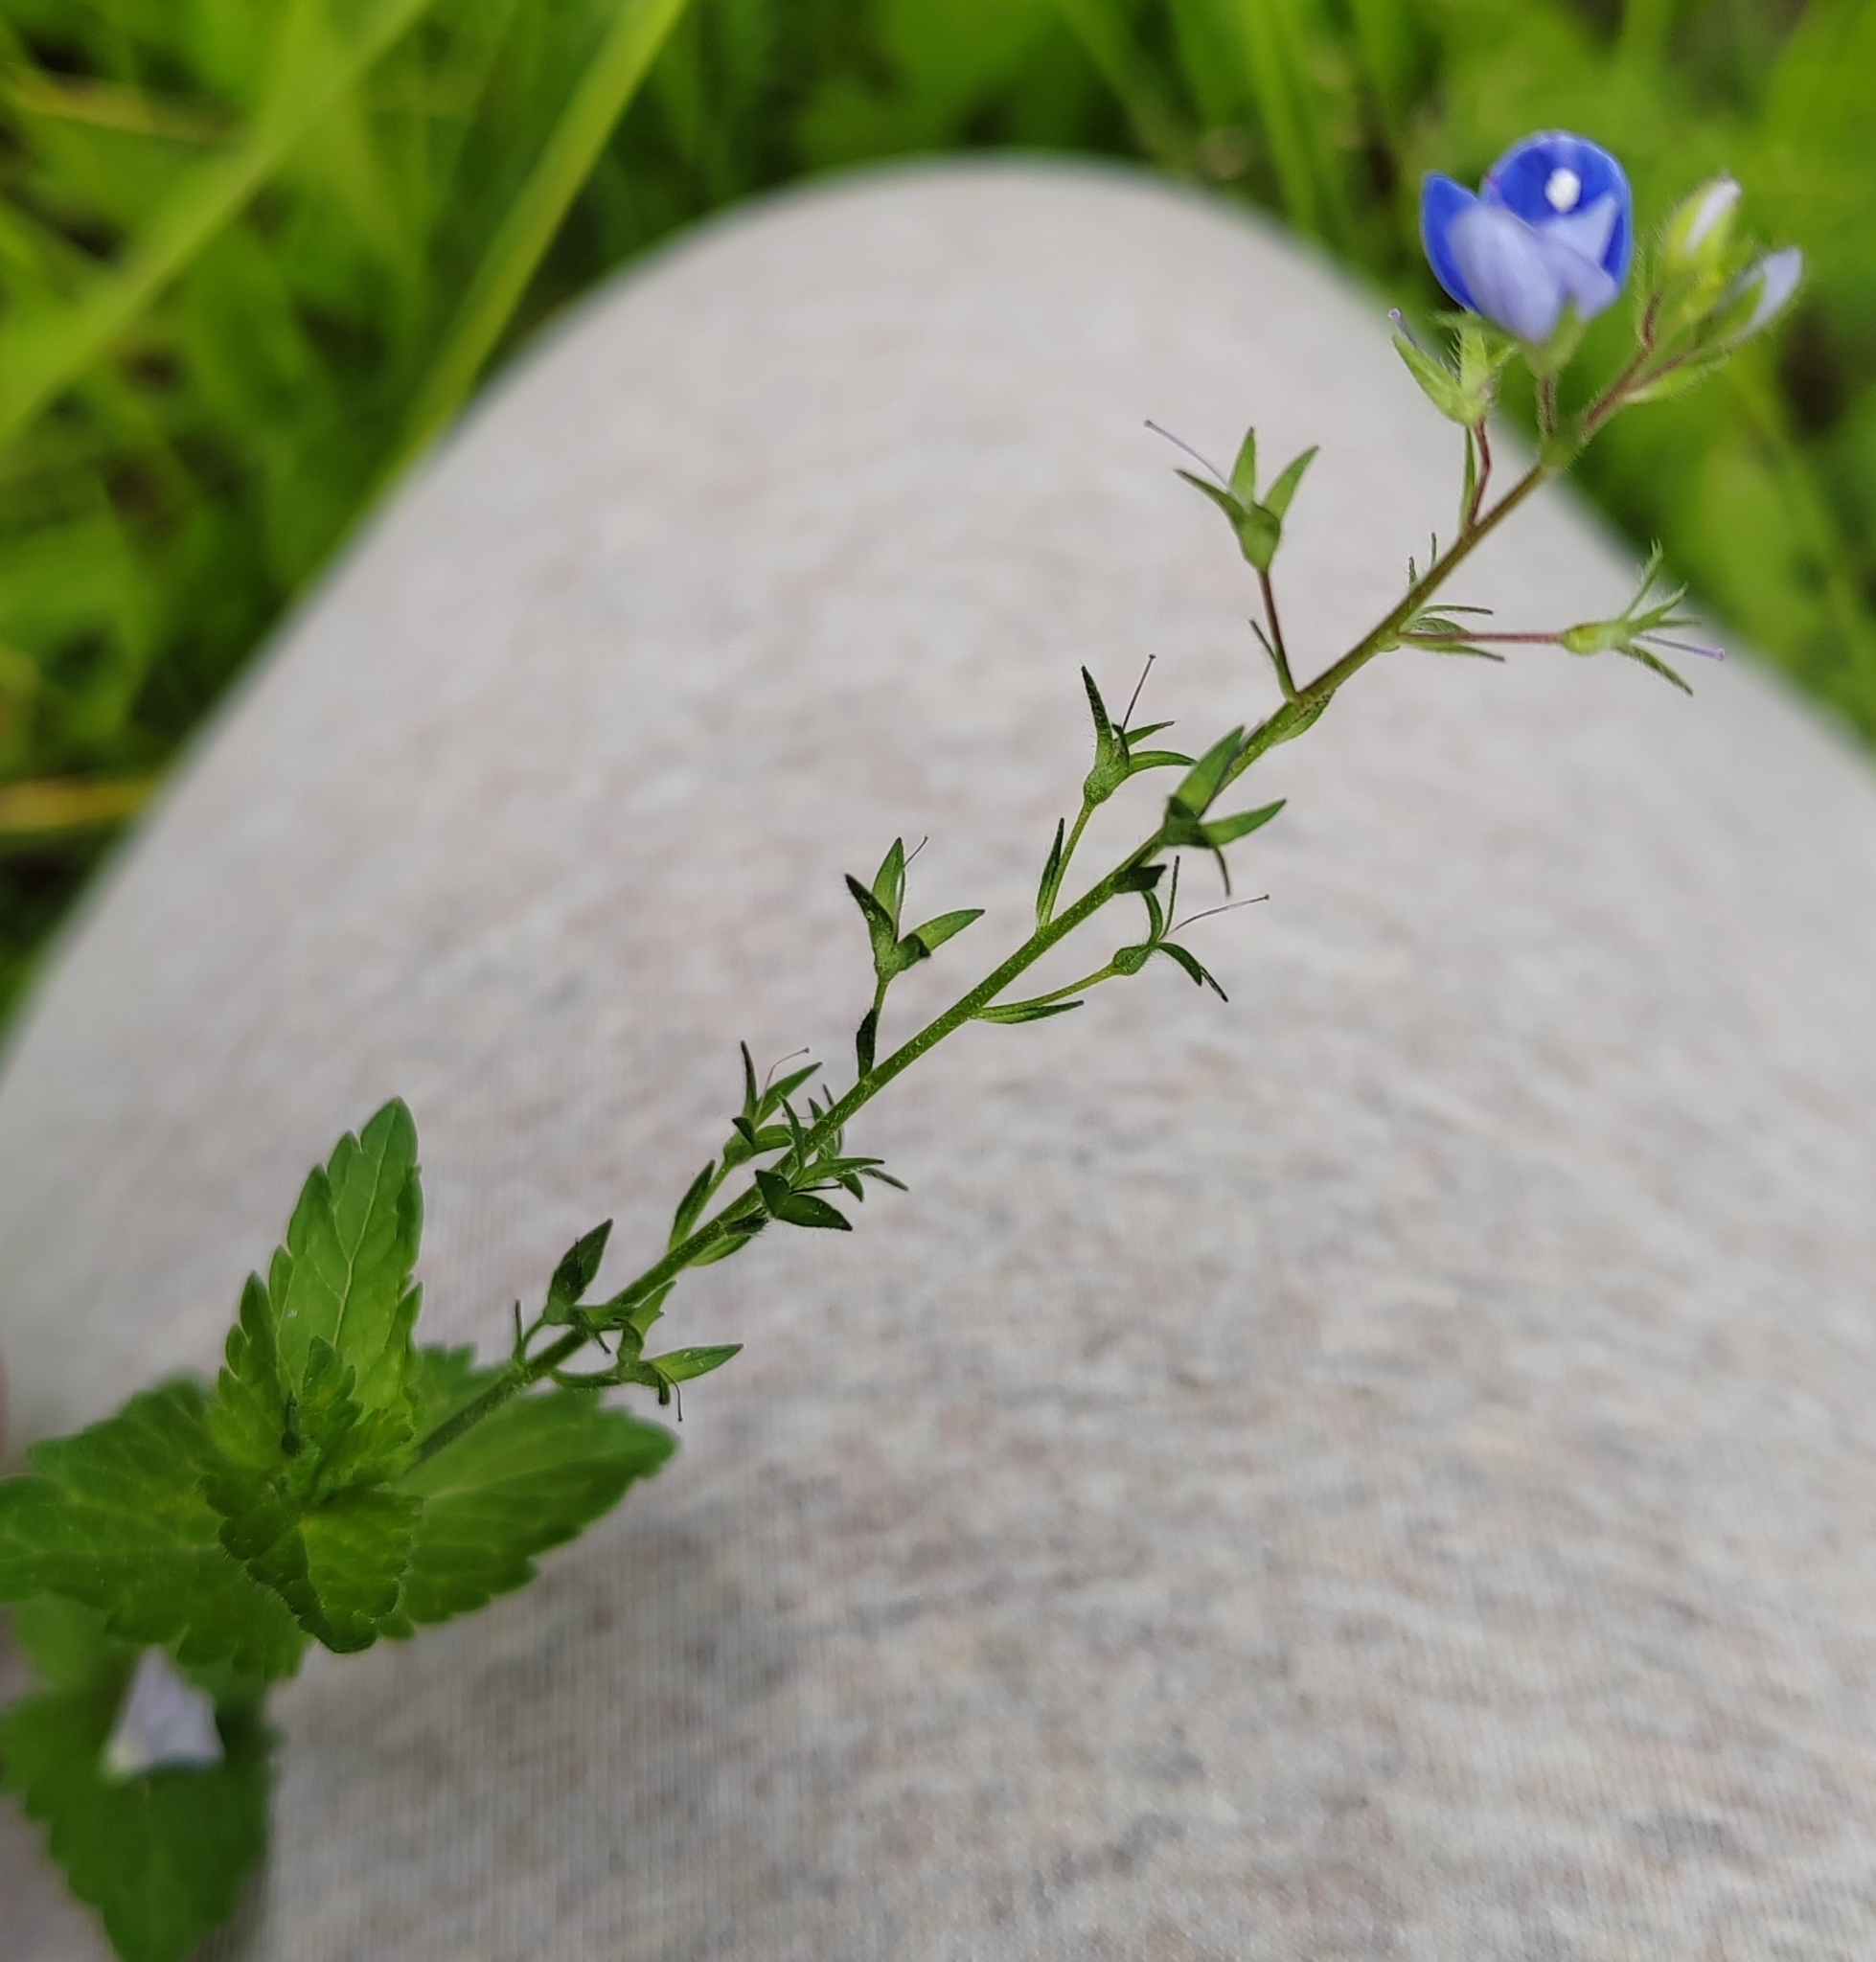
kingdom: Plantae
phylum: Tracheophyta
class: Magnoliopsida
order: Lamiales
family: Plantaginaceae
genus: Veronica
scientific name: Veronica chamaedrys
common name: Germander speedwell
